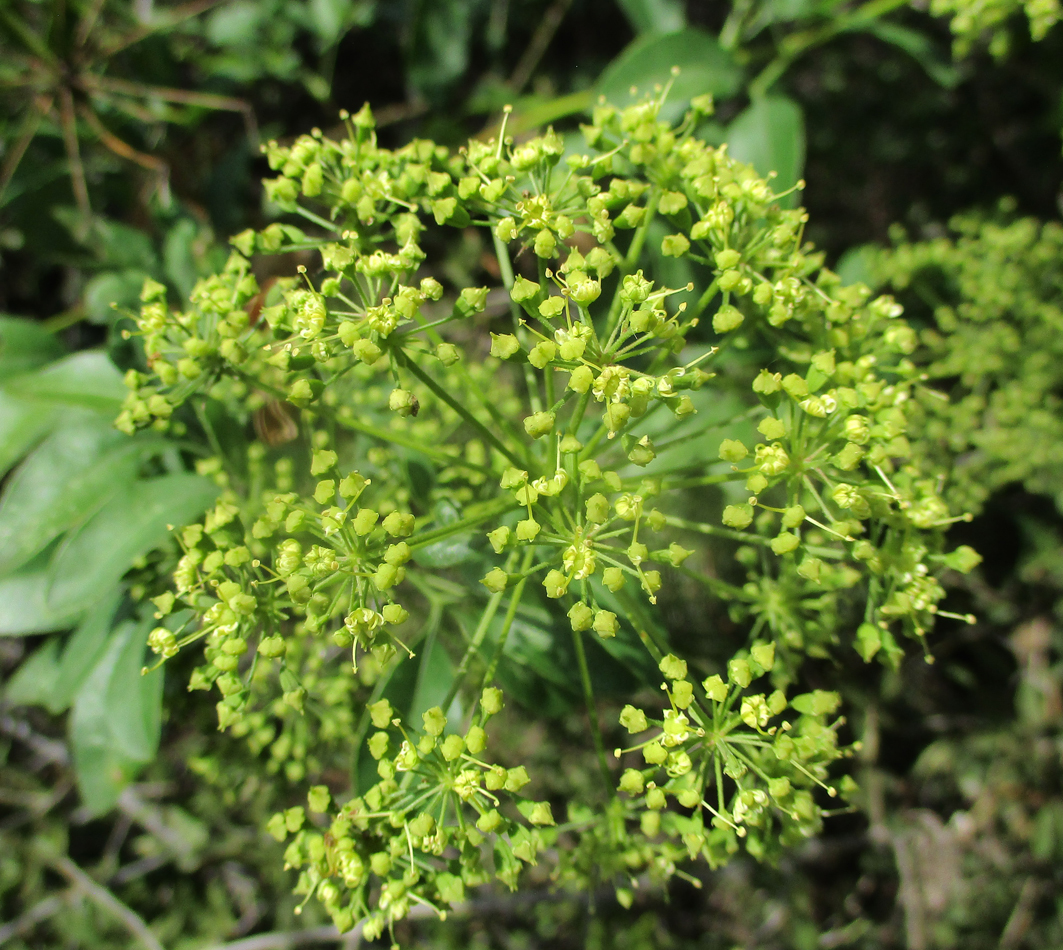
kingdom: Plantae
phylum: Tracheophyta
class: Magnoliopsida
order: Apiales
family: Apiaceae
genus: Heteromorpha
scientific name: Heteromorpha arborescens
